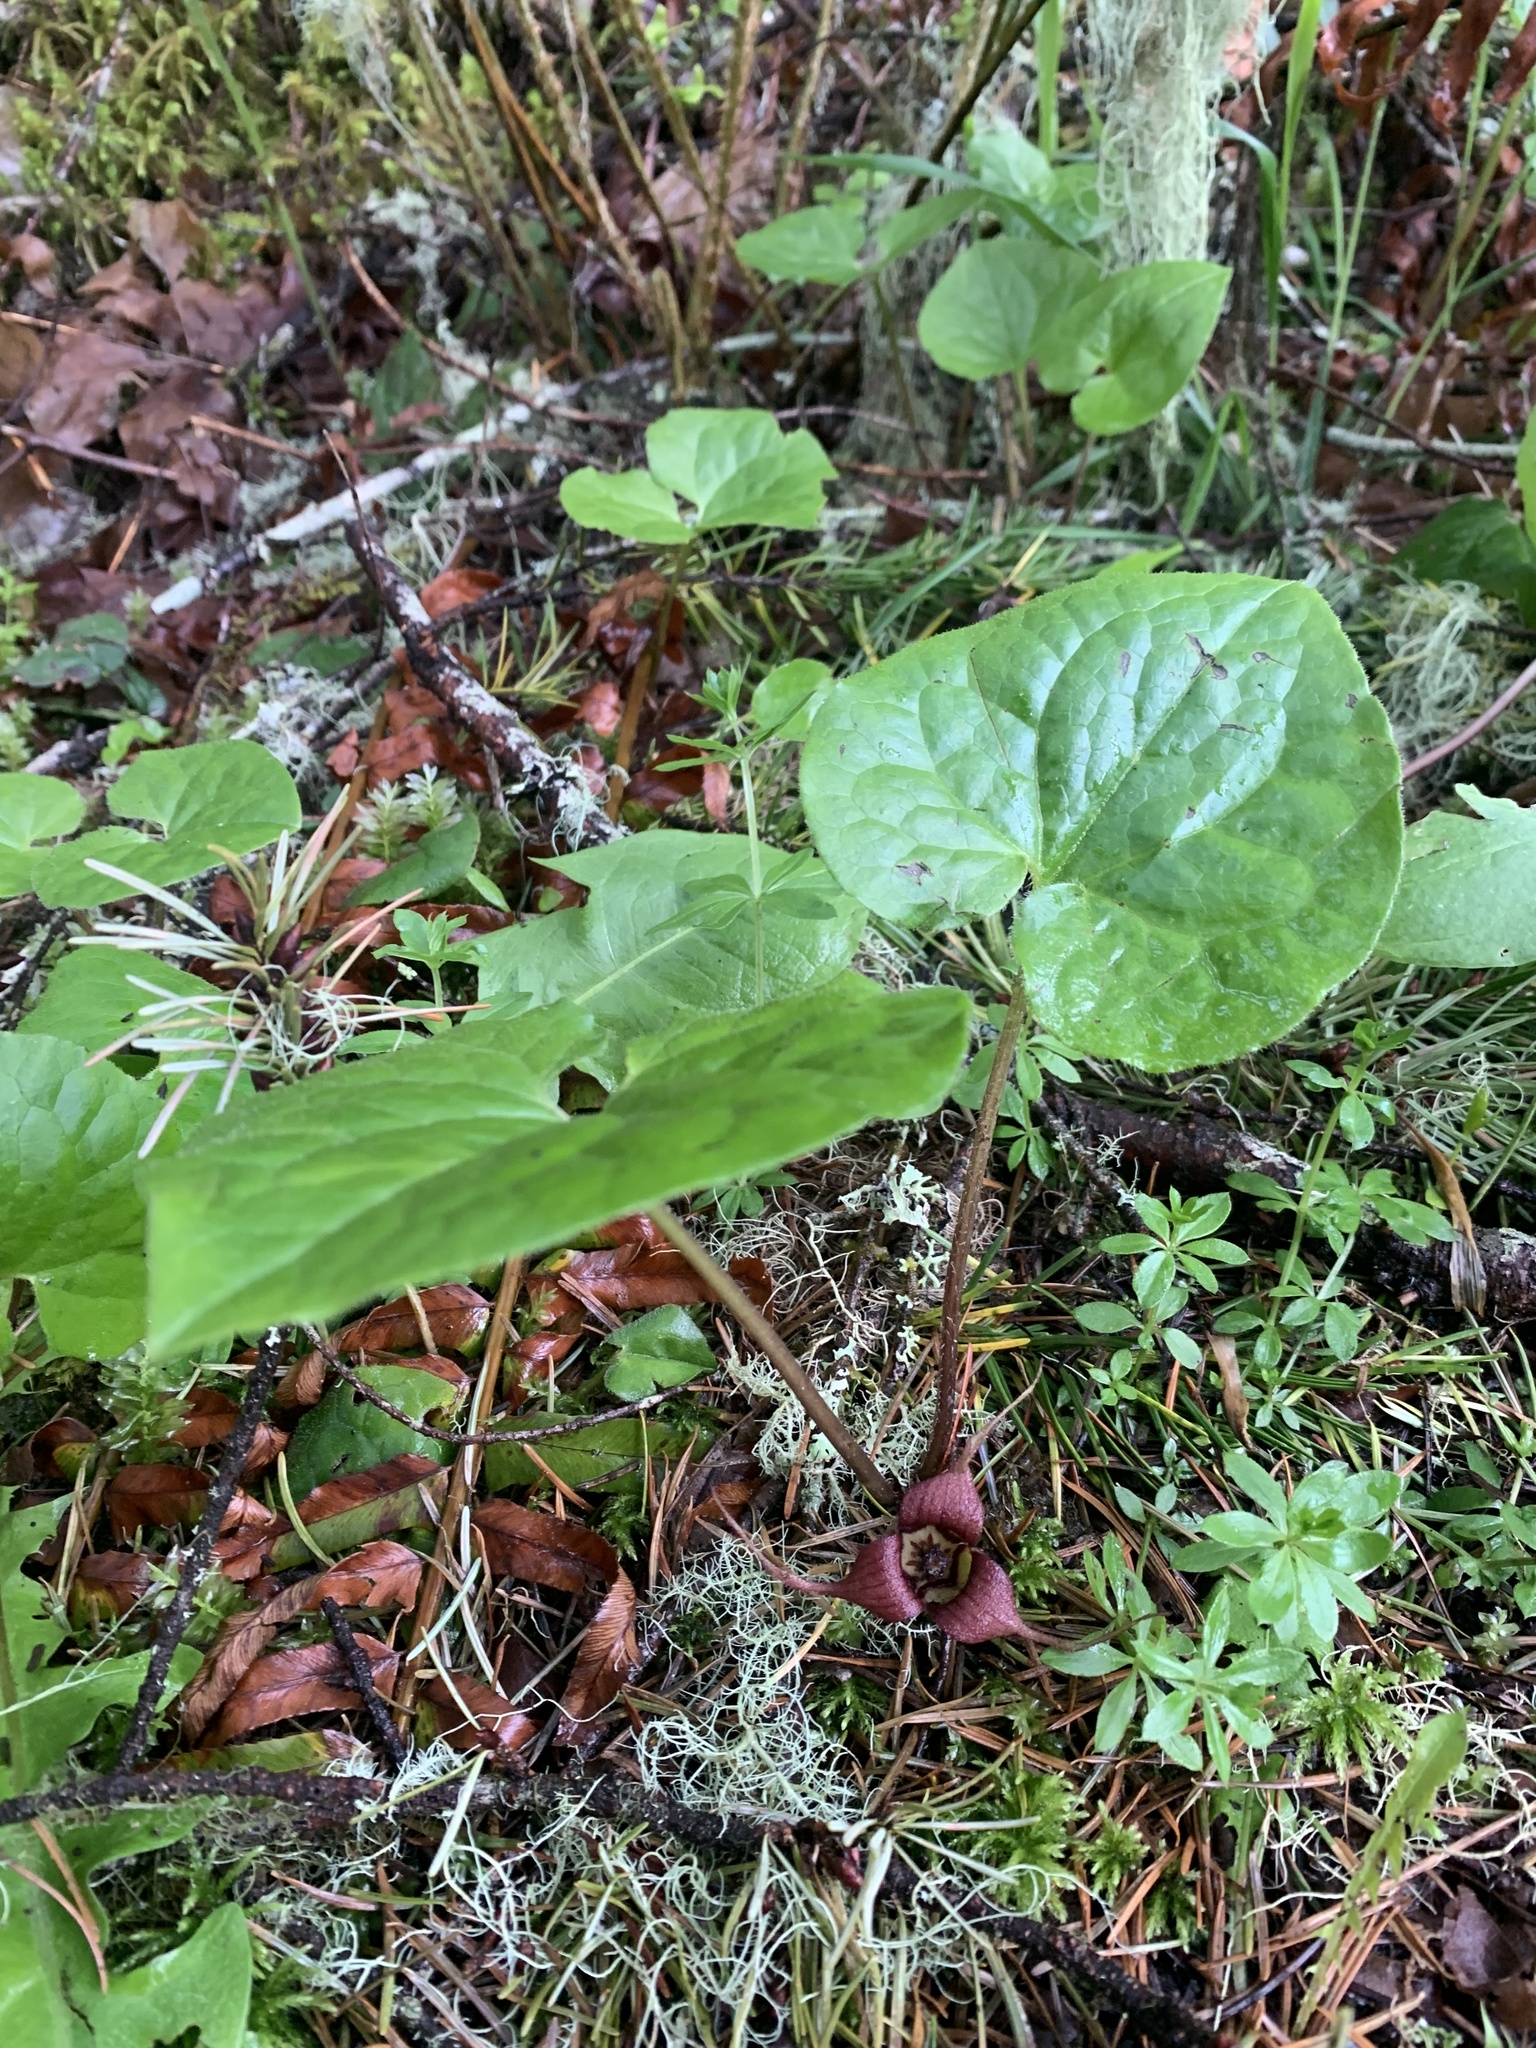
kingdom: Plantae
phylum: Tracheophyta
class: Magnoliopsida
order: Piperales
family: Aristolochiaceae
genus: Asarum
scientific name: Asarum caudatum
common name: Wild ginger
